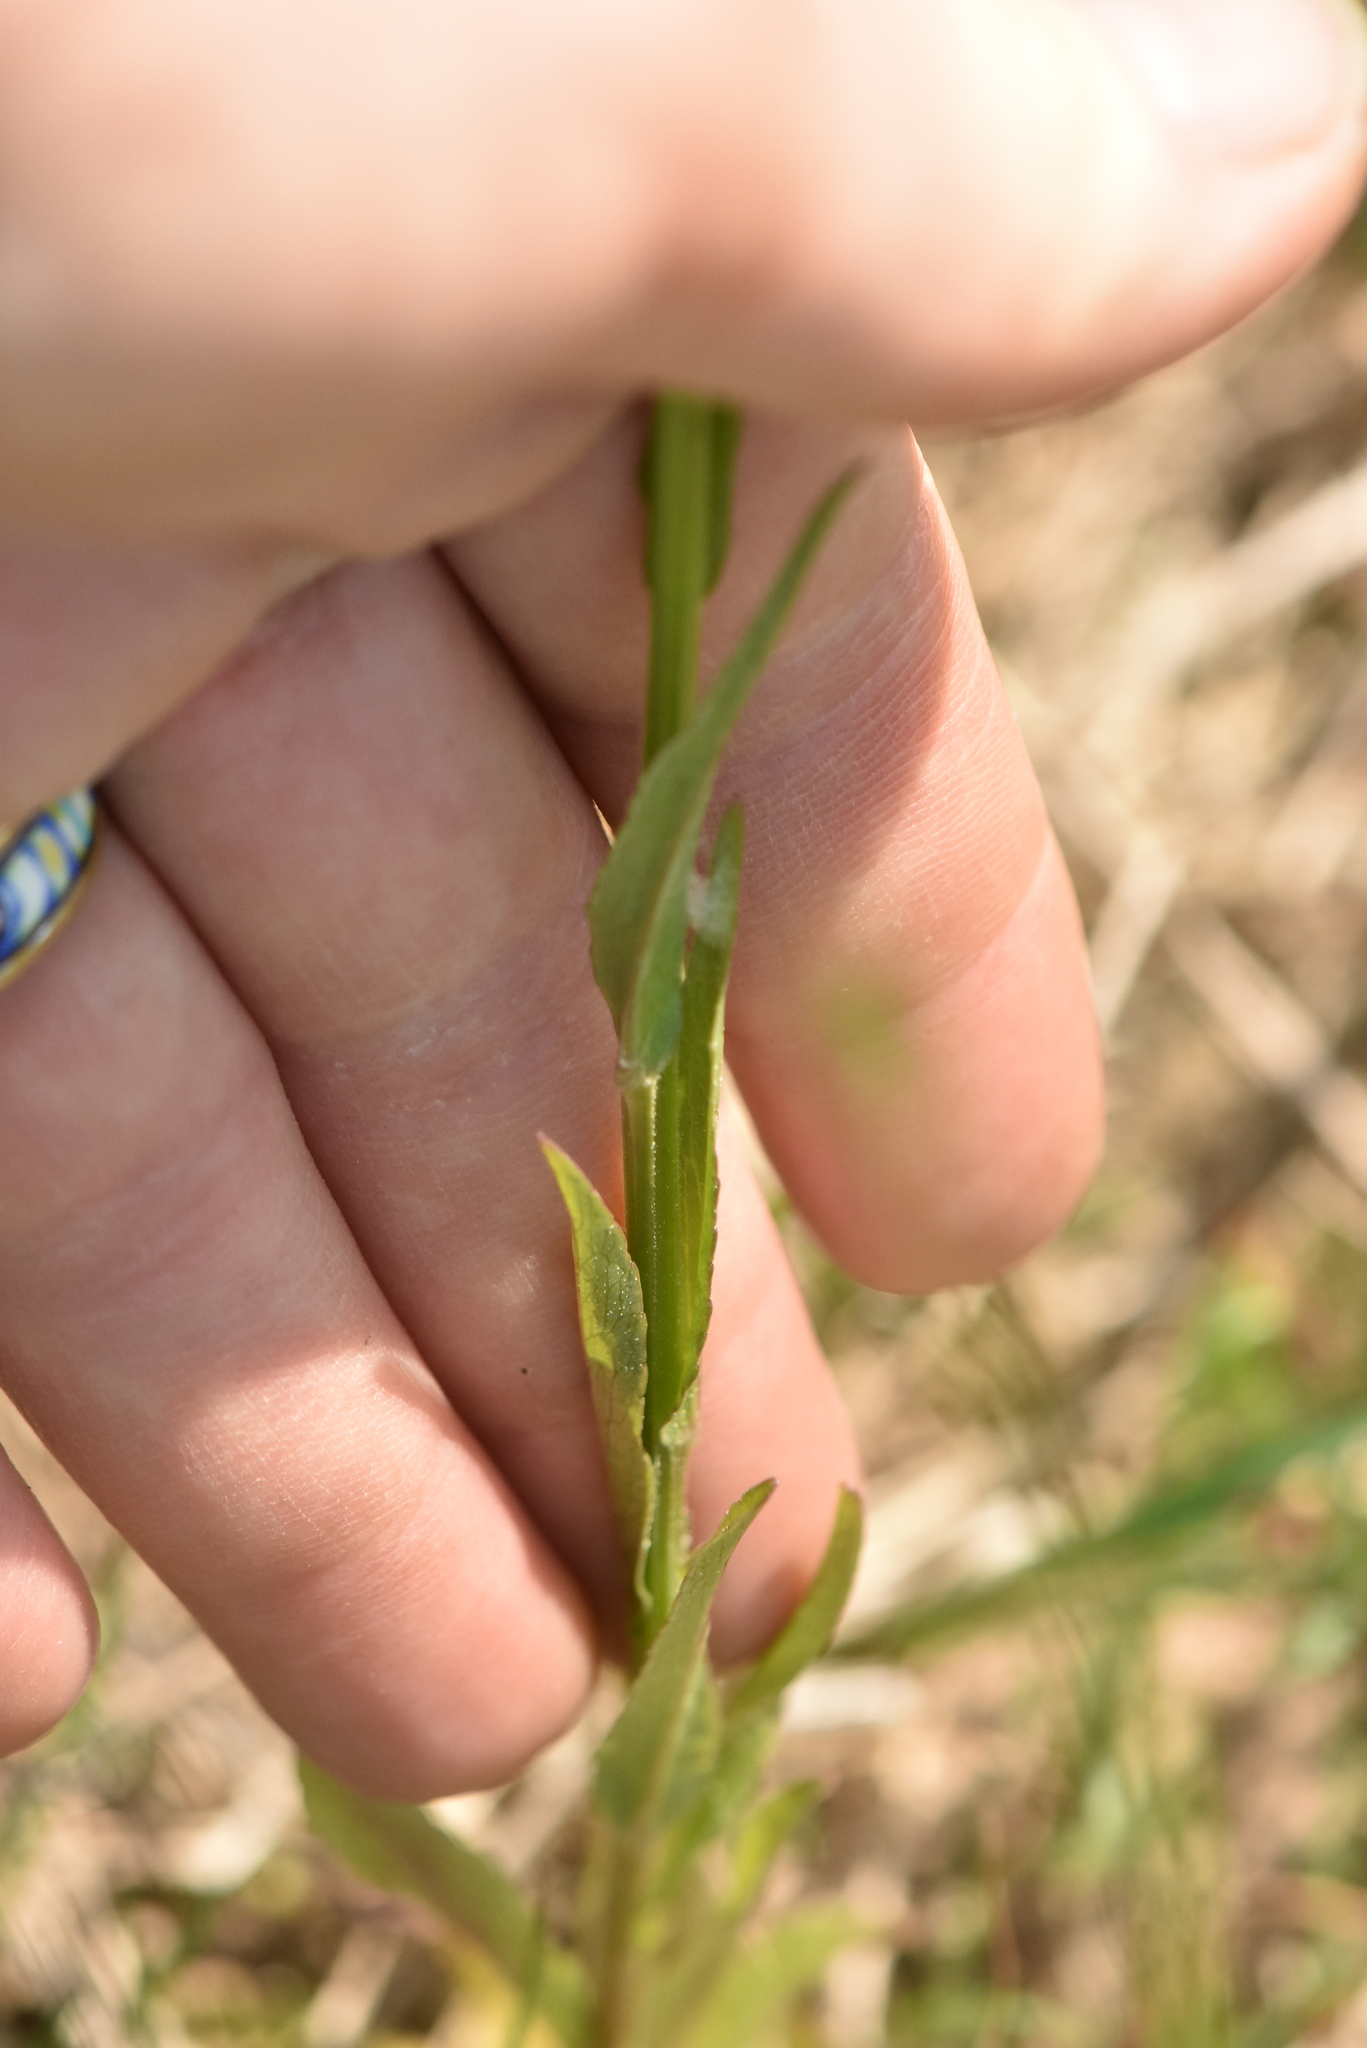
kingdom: Plantae
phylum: Tracheophyta
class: Magnoliopsida
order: Asterales
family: Campanulaceae
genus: Campanula
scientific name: Campanula patula
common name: Spreading bellflower
